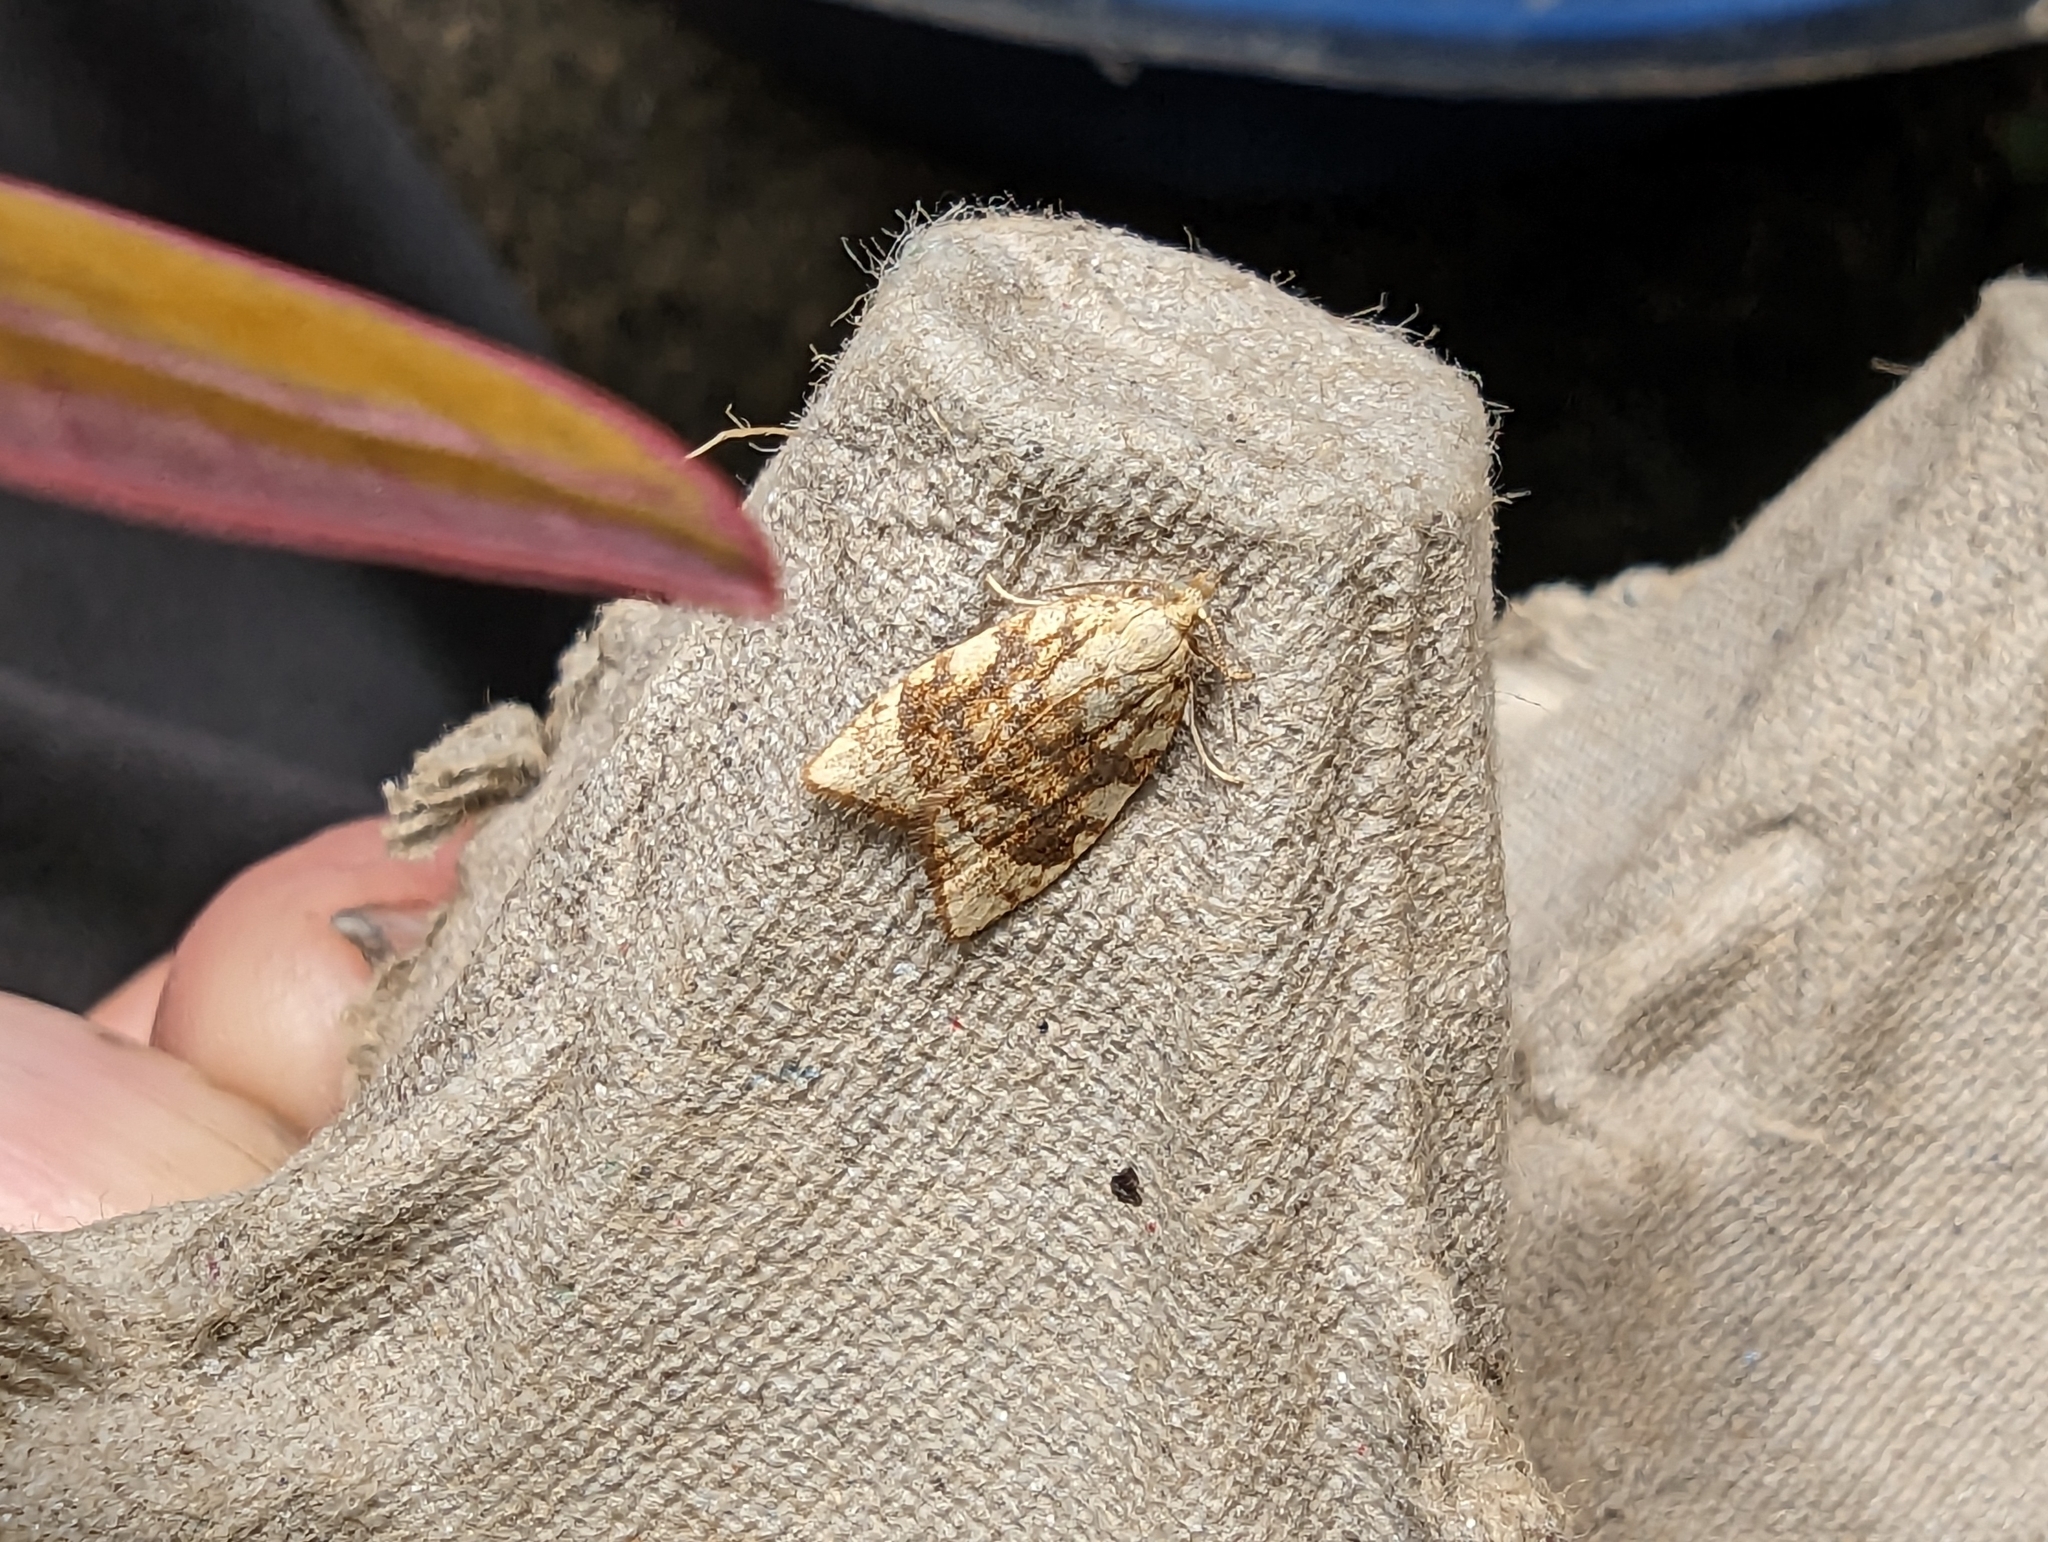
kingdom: Animalia
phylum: Arthropoda
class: Insecta
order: Lepidoptera
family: Tortricidae
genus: Aleimma
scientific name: Aleimma loeflingiana
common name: Yellow oak button
